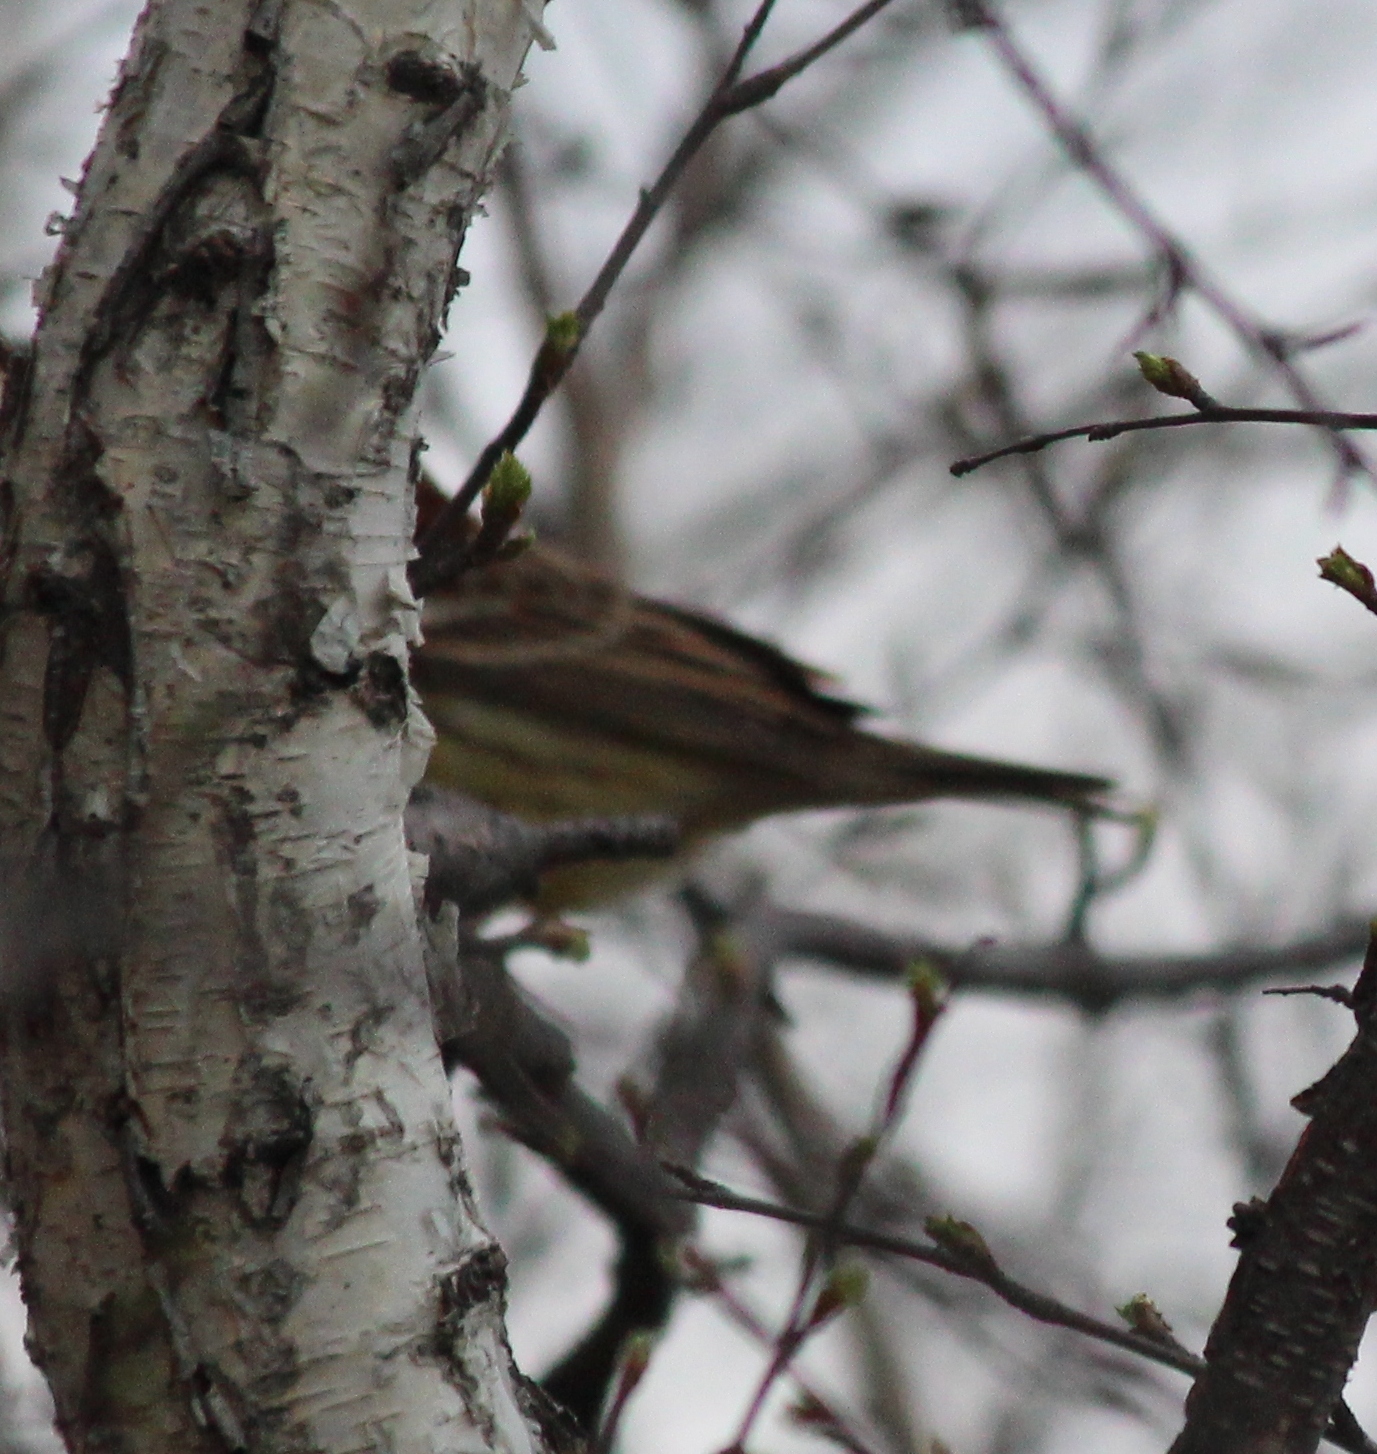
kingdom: Animalia
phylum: Chordata
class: Aves
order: Passeriformes
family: Emberizidae
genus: Emberiza
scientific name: Emberiza spodocephala
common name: Black-faced bunting
